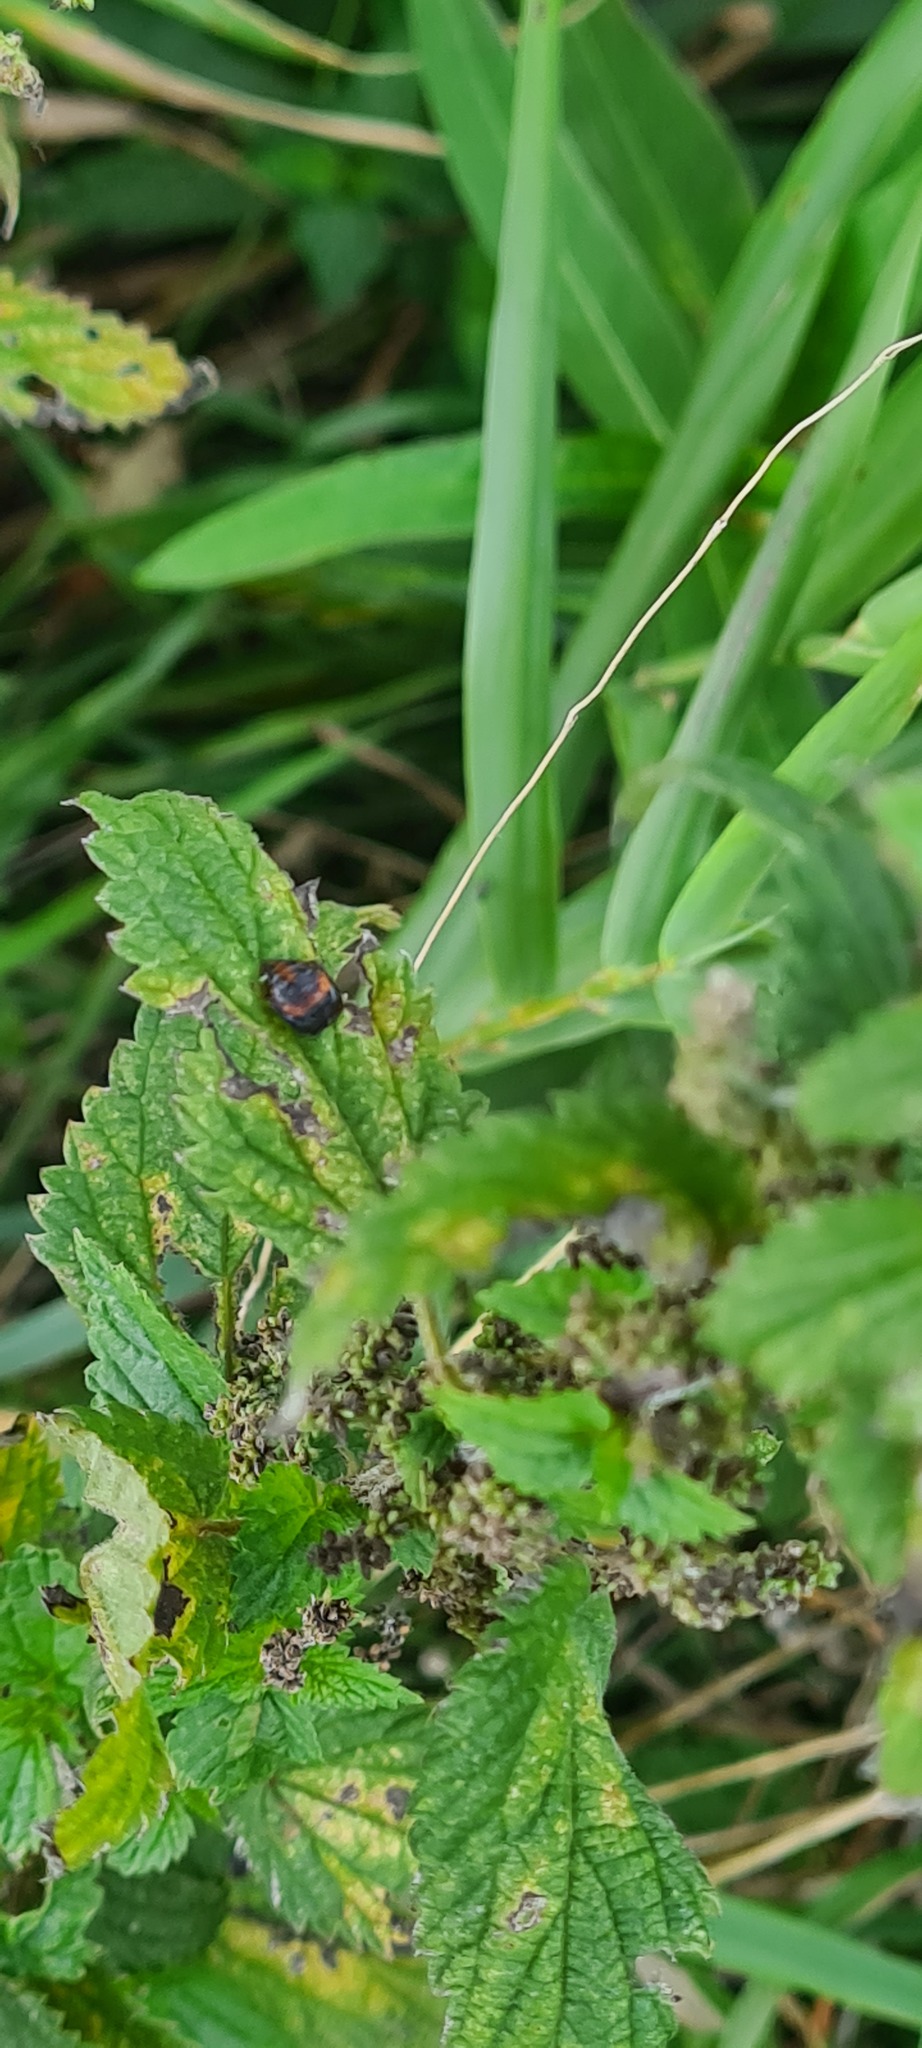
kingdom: Animalia
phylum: Arthropoda
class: Insecta
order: Coleoptera
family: Coccinellidae
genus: Harmonia
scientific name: Harmonia axyridis
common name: Harlequin ladybird
